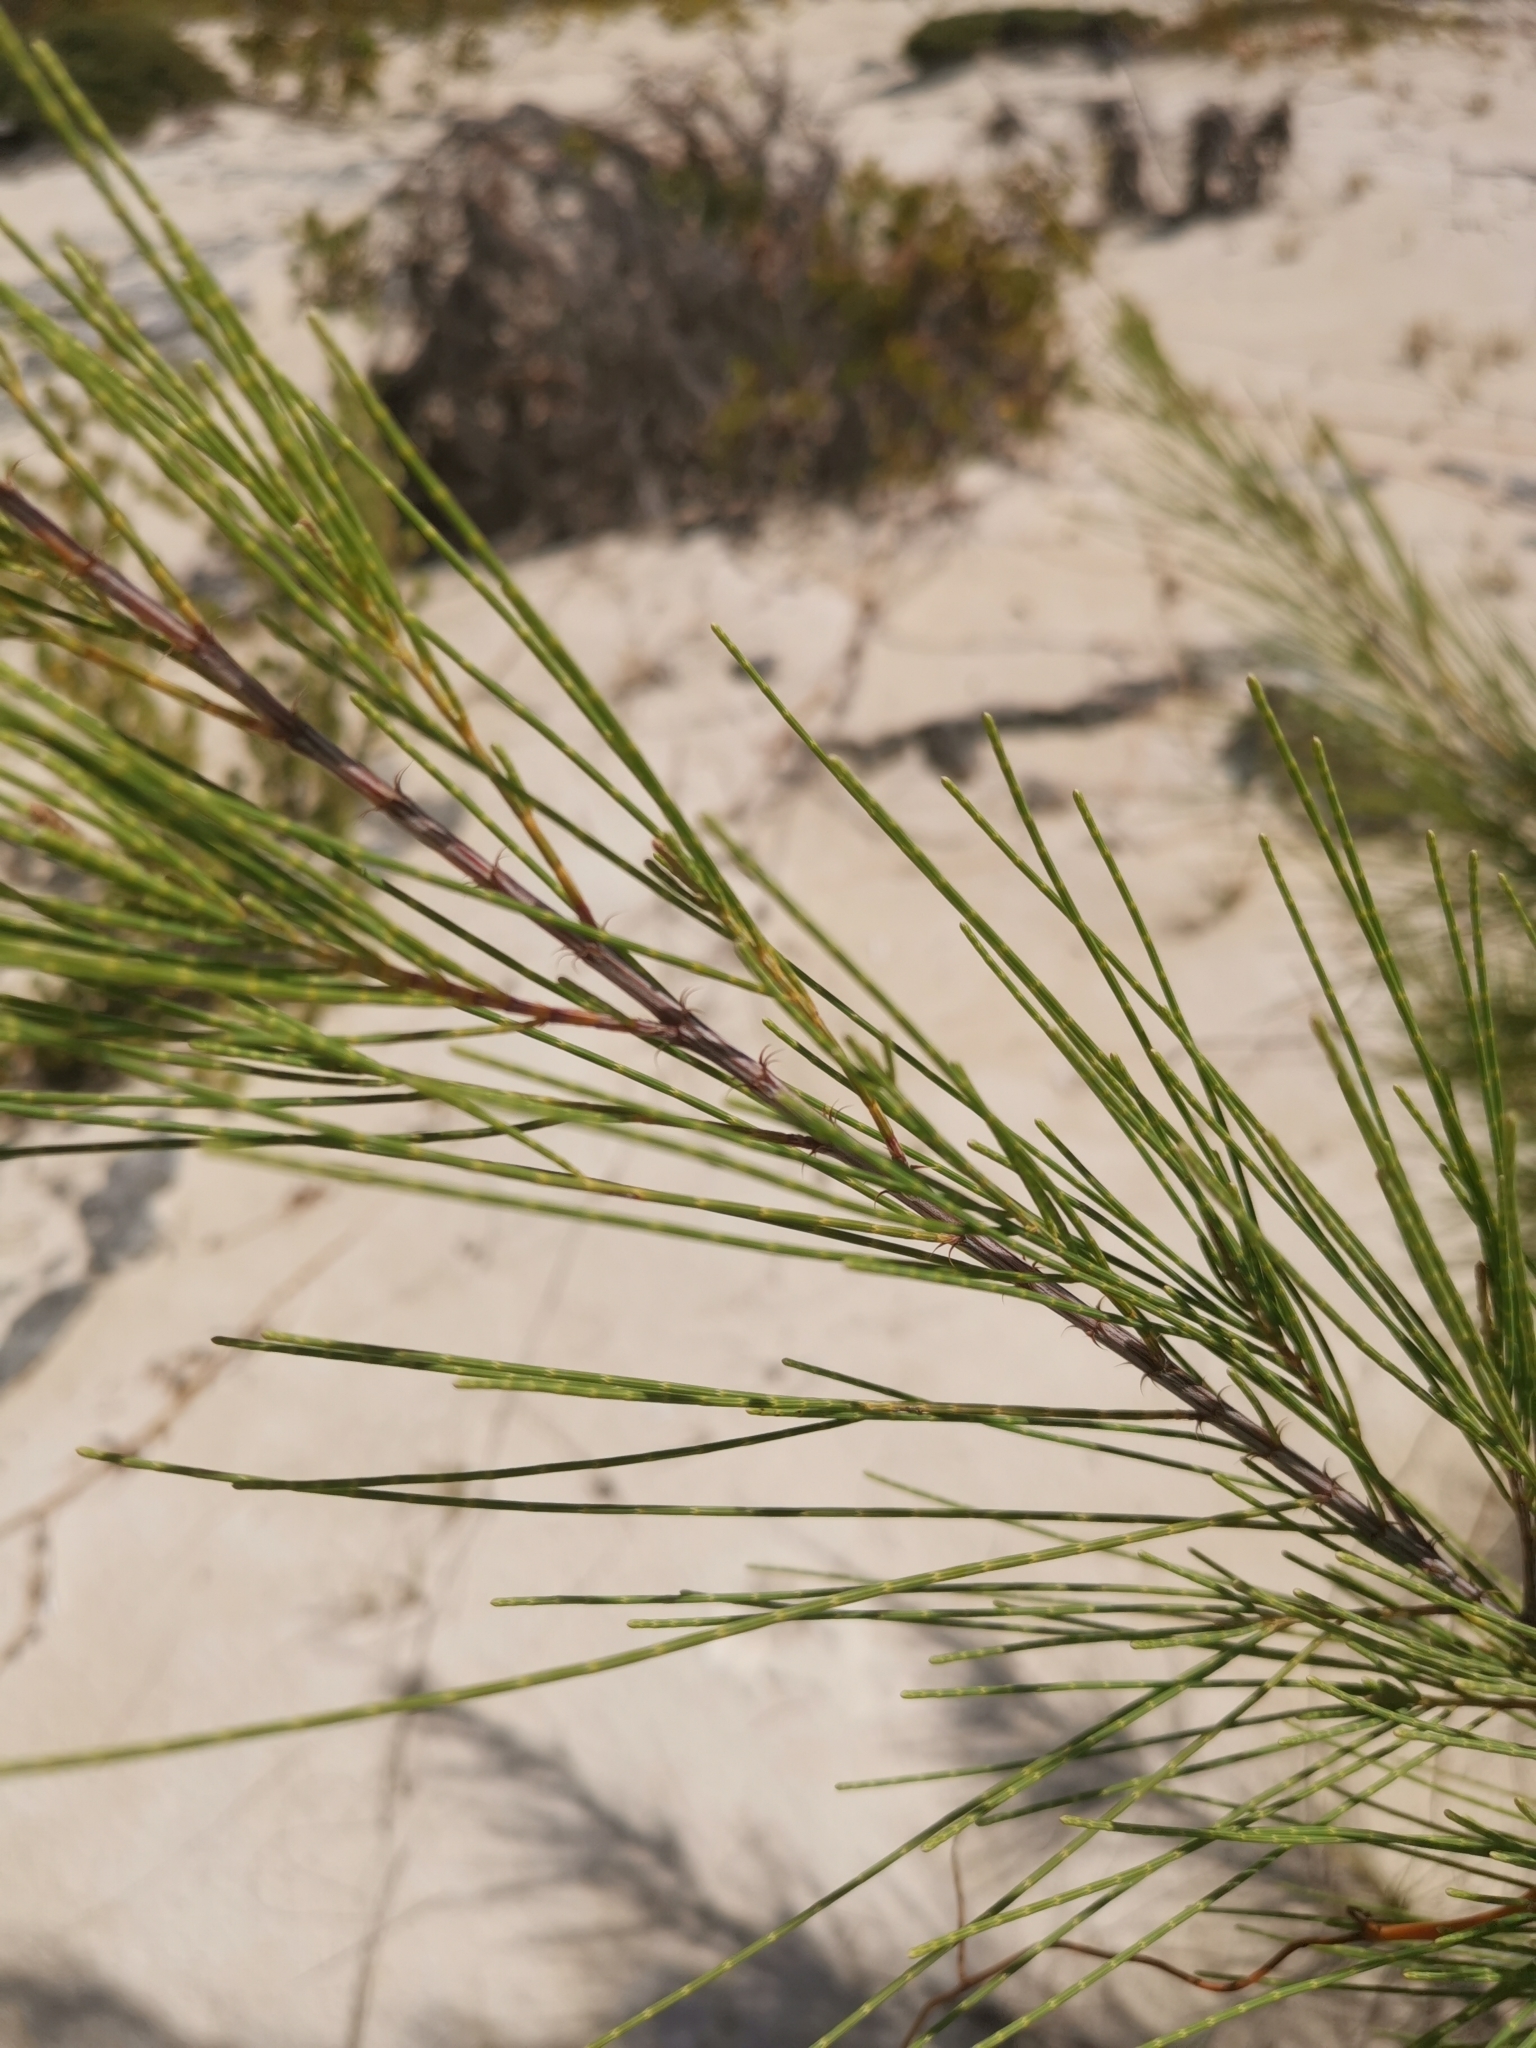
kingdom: Plantae
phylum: Tracheophyta
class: Magnoliopsida
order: Fagales
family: Casuarinaceae
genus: Casuarina
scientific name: Casuarina equisetifolia
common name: Beach sheoak
